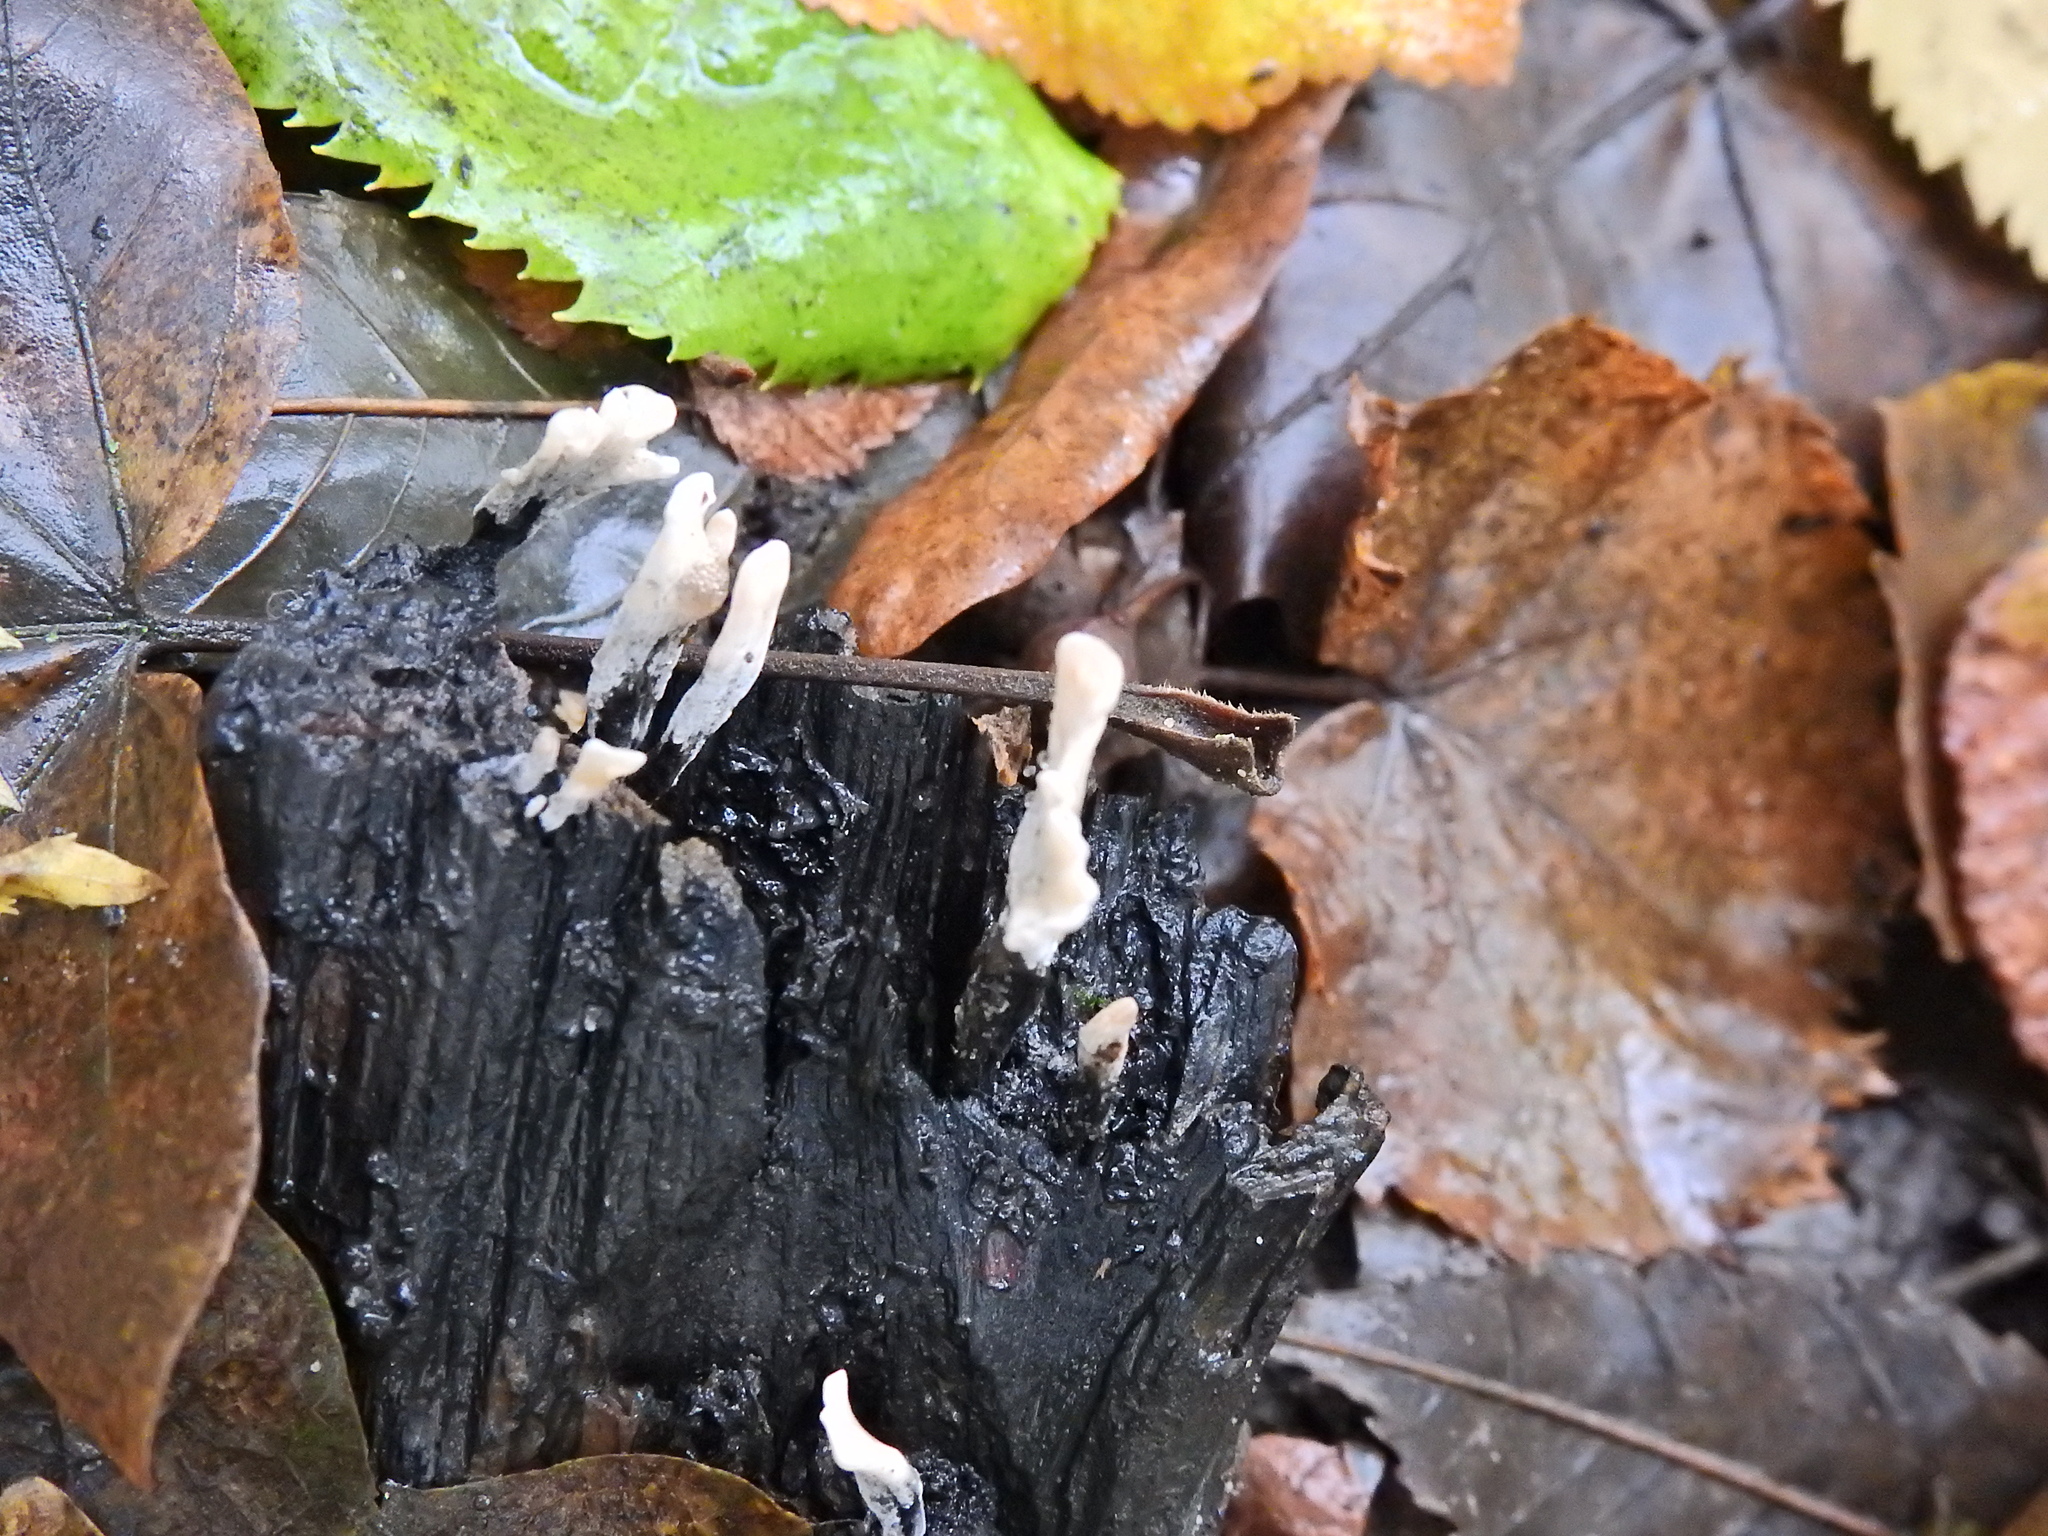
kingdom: Fungi
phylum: Ascomycota
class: Sordariomycetes
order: Xylariales
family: Xylariaceae
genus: Xylaria
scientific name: Xylaria hypoxylon
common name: Candle-snuff fungus
